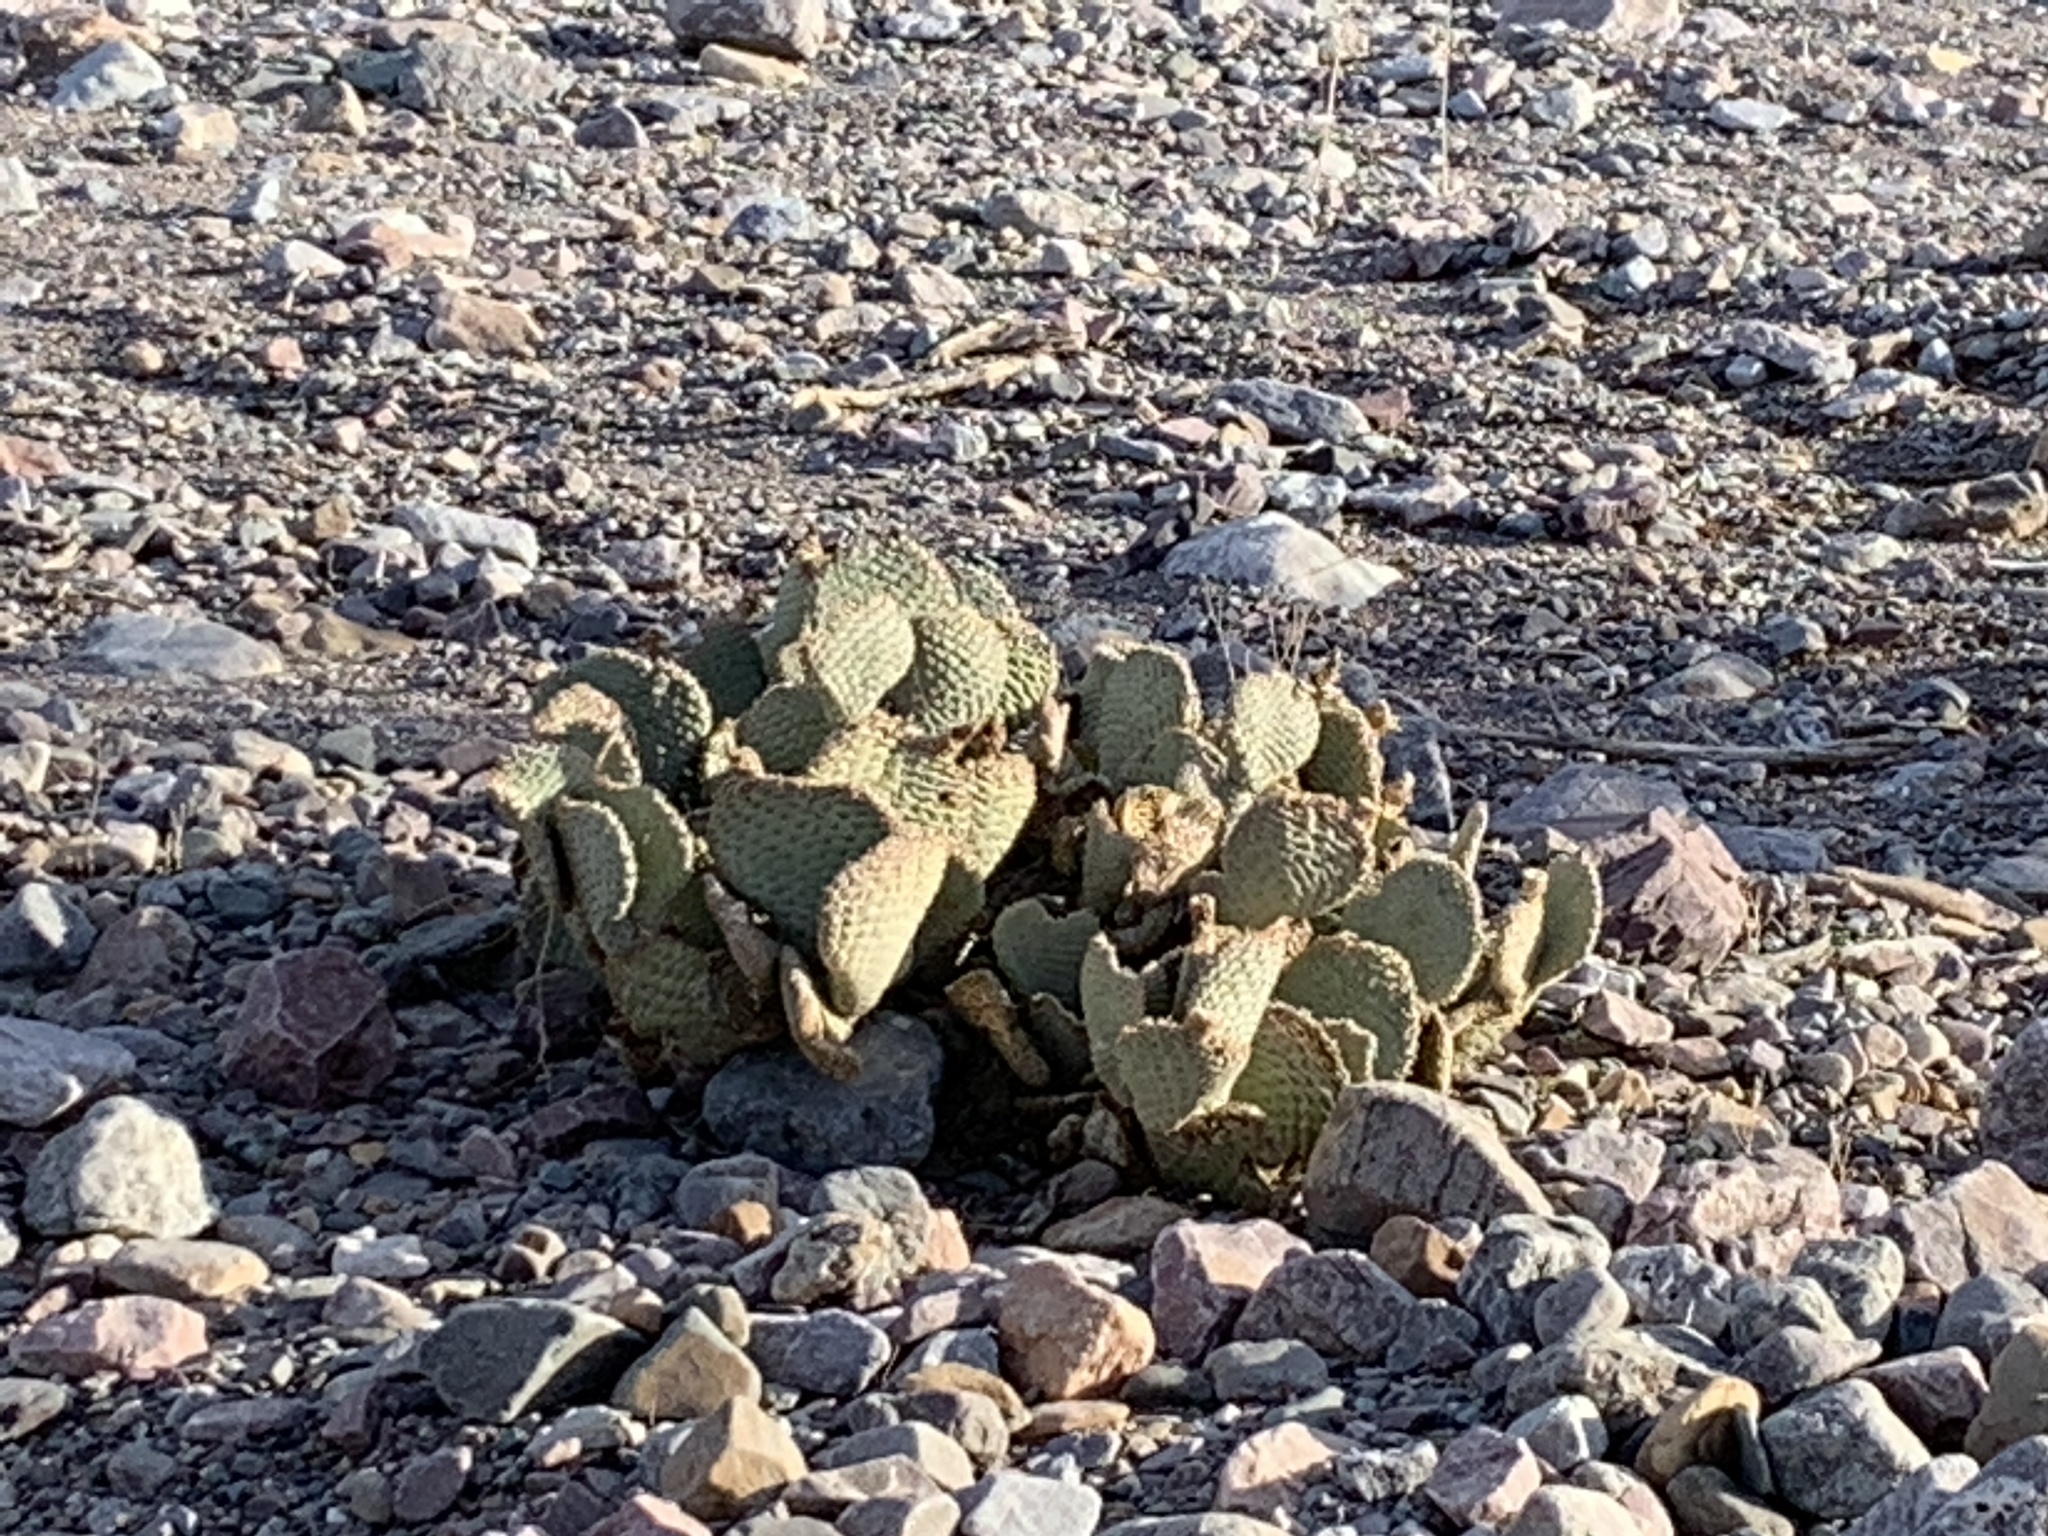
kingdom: Plantae
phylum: Tracheophyta
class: Magnoliopsida
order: Caryophyllales
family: Cactaceae
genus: Opuntia
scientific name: Opuntia basilaris
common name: Beavertail prickly-pear
